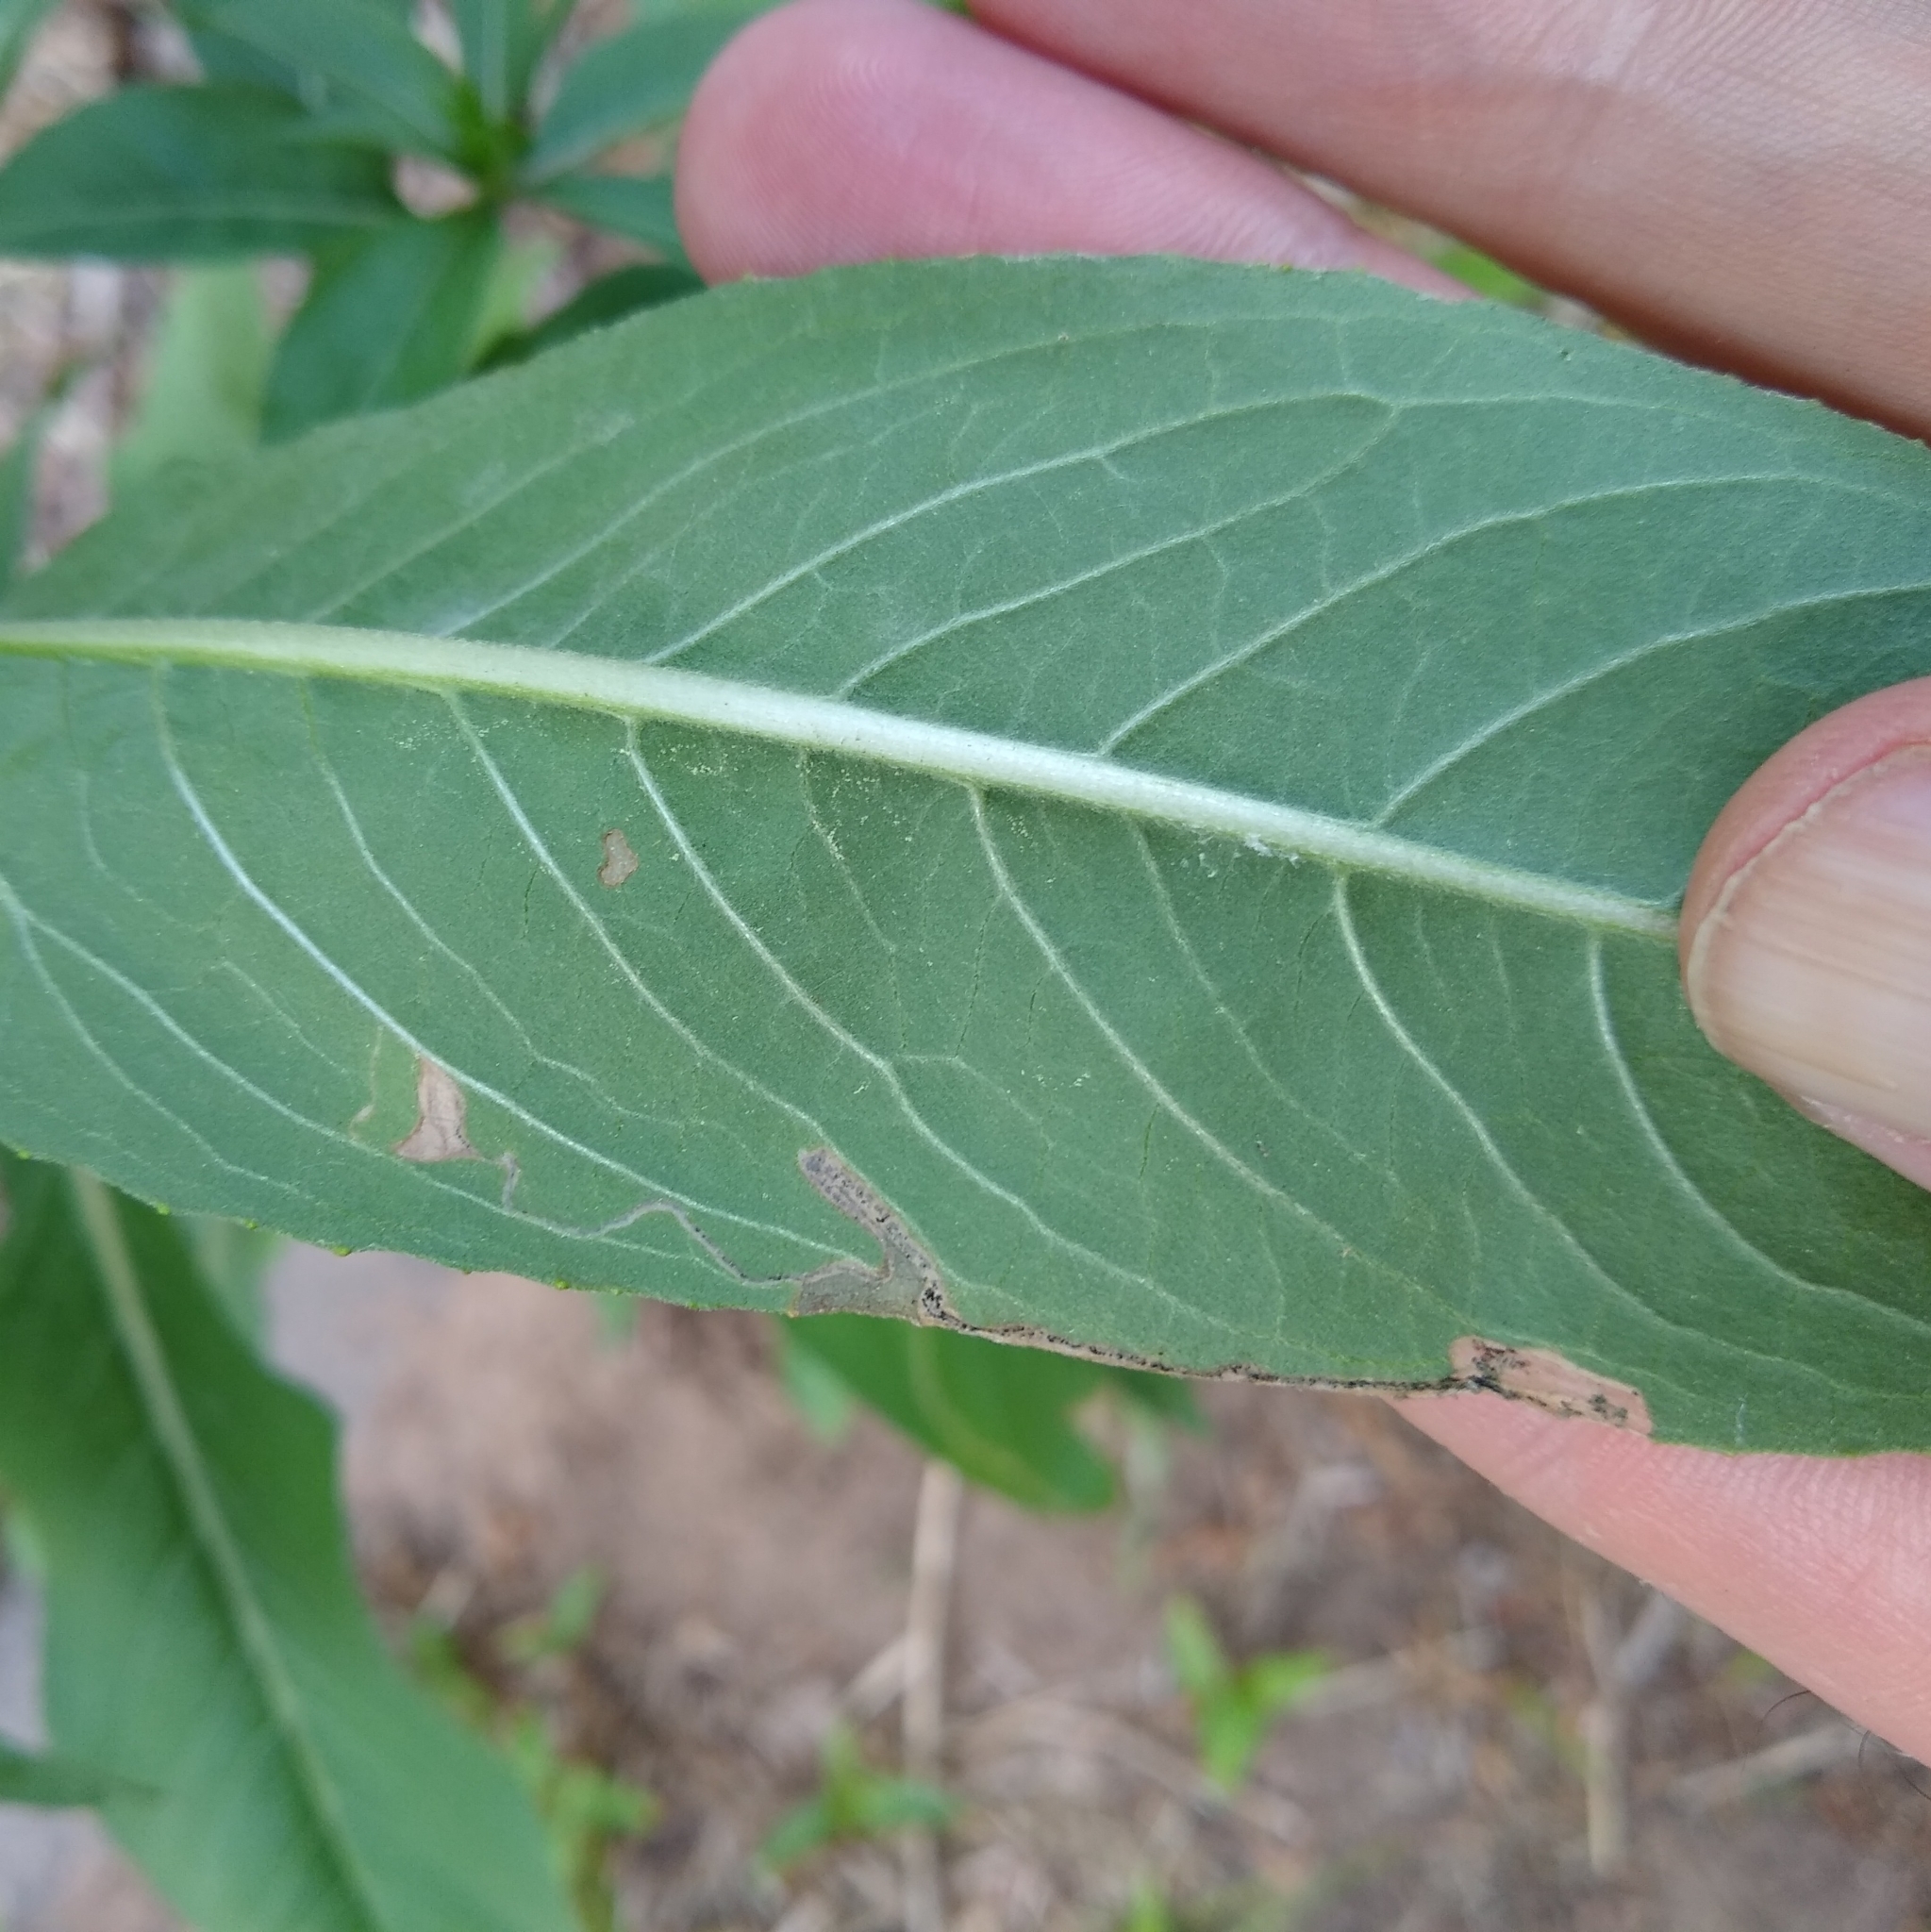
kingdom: Animalia
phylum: Arthropoda
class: Insecta
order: Lepidoptera
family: Momphidae
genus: Mompha
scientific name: Mompha argentimaculella
